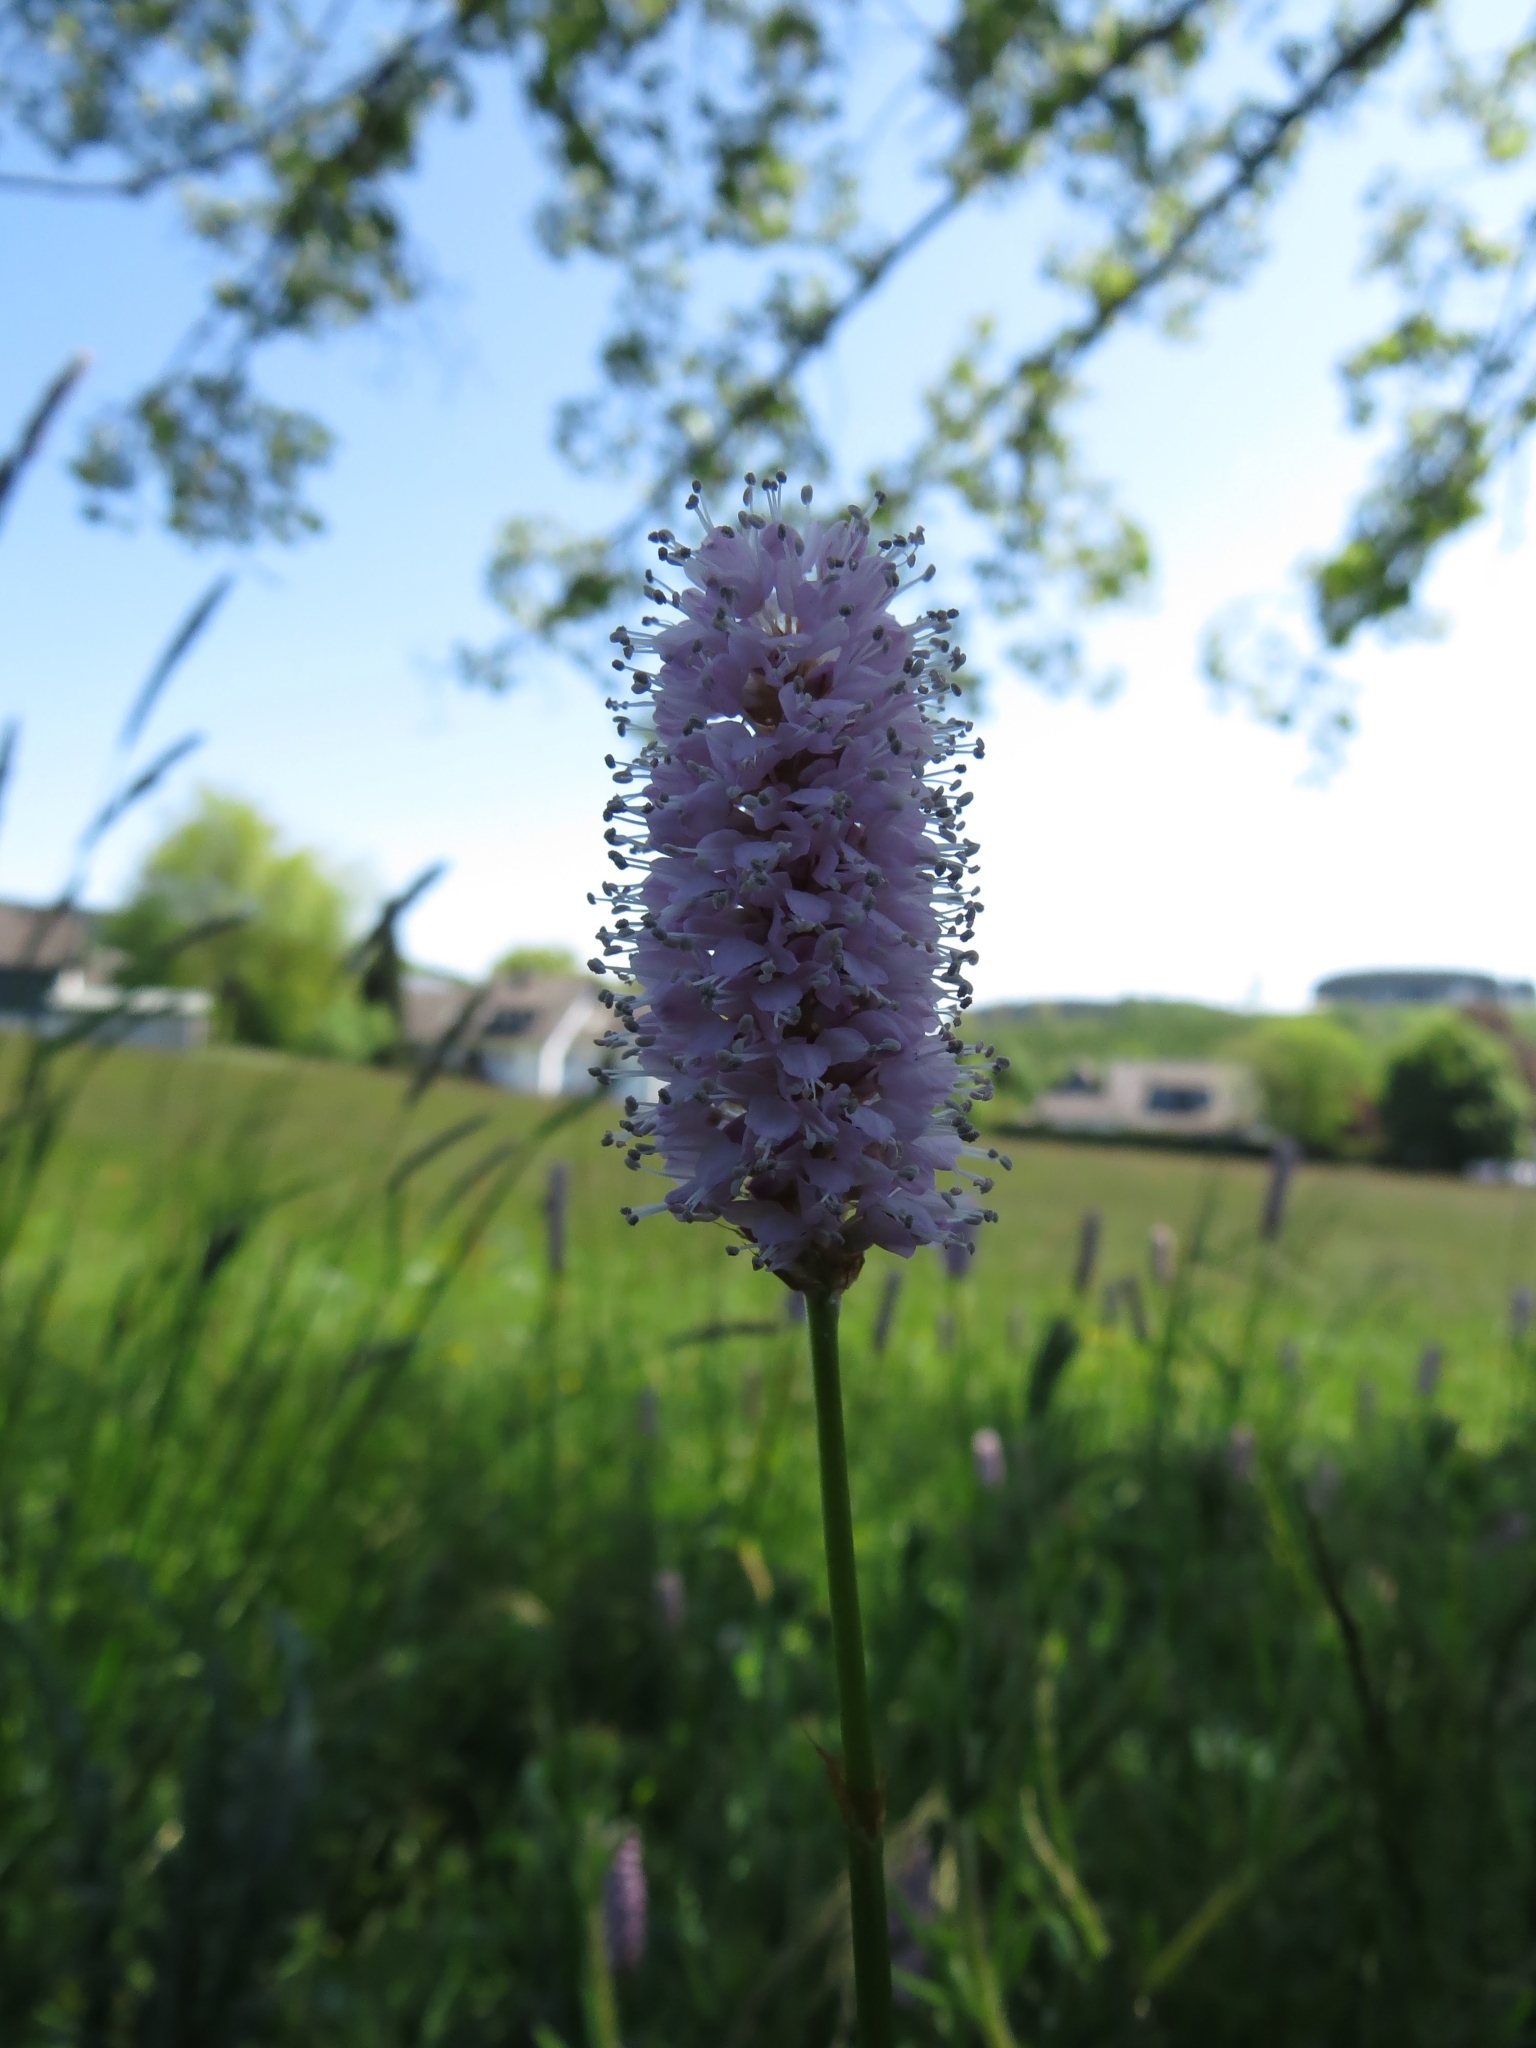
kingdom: Plantae
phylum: Tracheophyta
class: Magnoliopsida
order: Caryophyllales
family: Polygonaceae
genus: Bistorta
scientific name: Bistorta officinalis
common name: Common bistort
